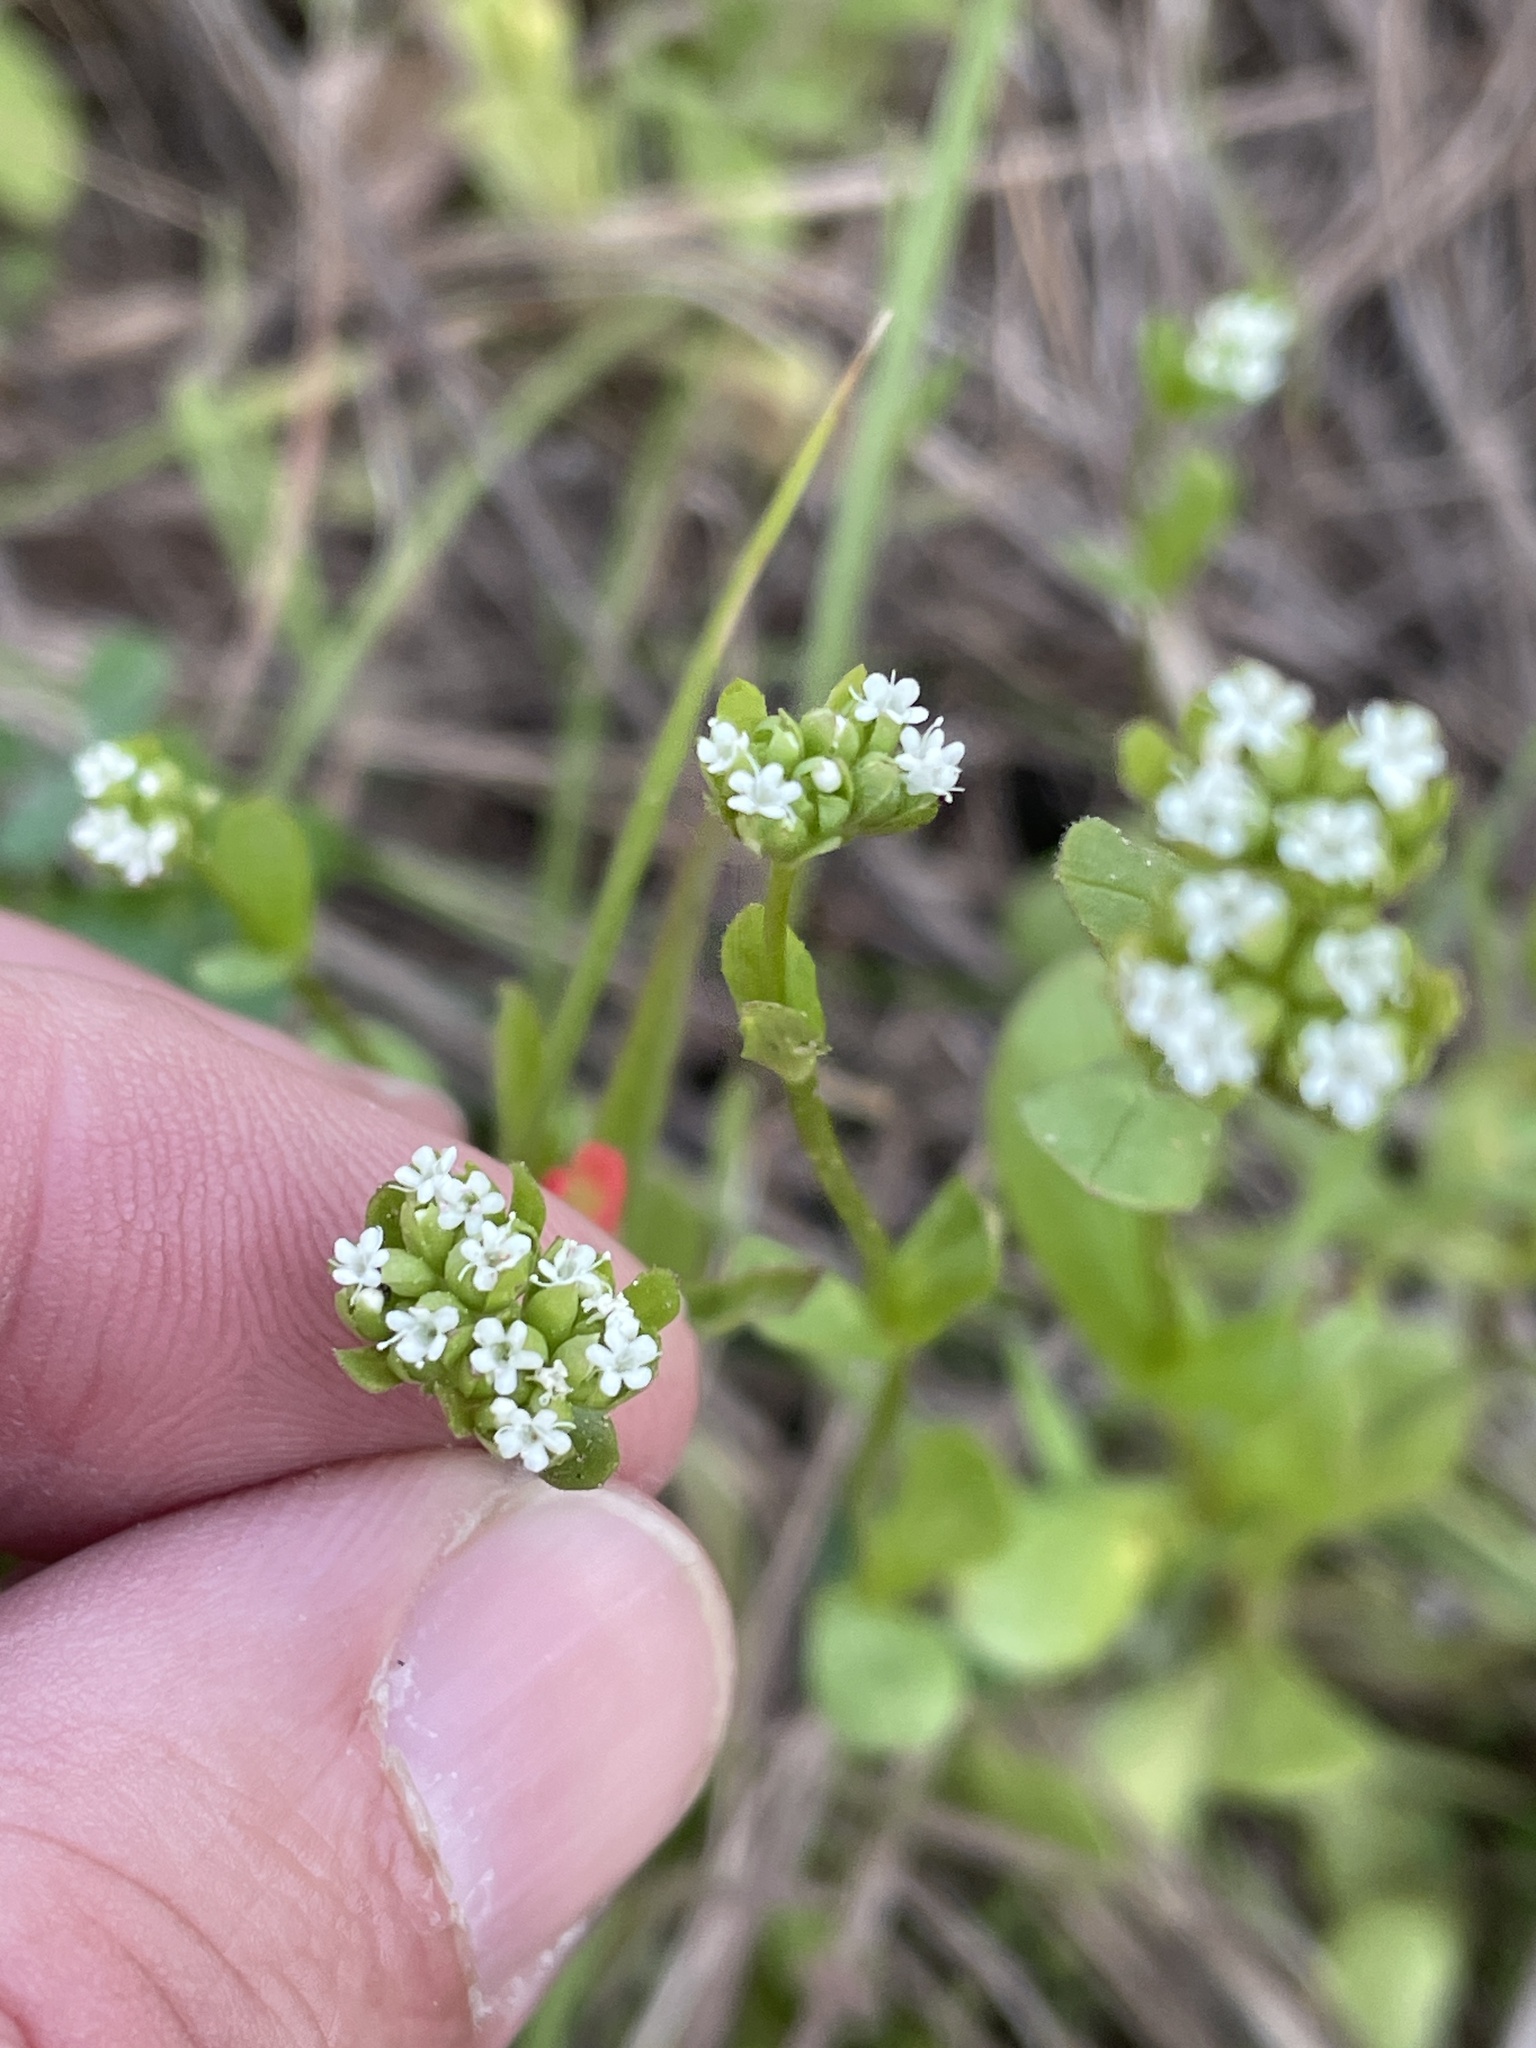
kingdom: Plantae
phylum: Tracheophyta
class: Magnoliopsida
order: Dipsacales
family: Caprifoliaceae
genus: Valerianella
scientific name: Valerianella radiata
